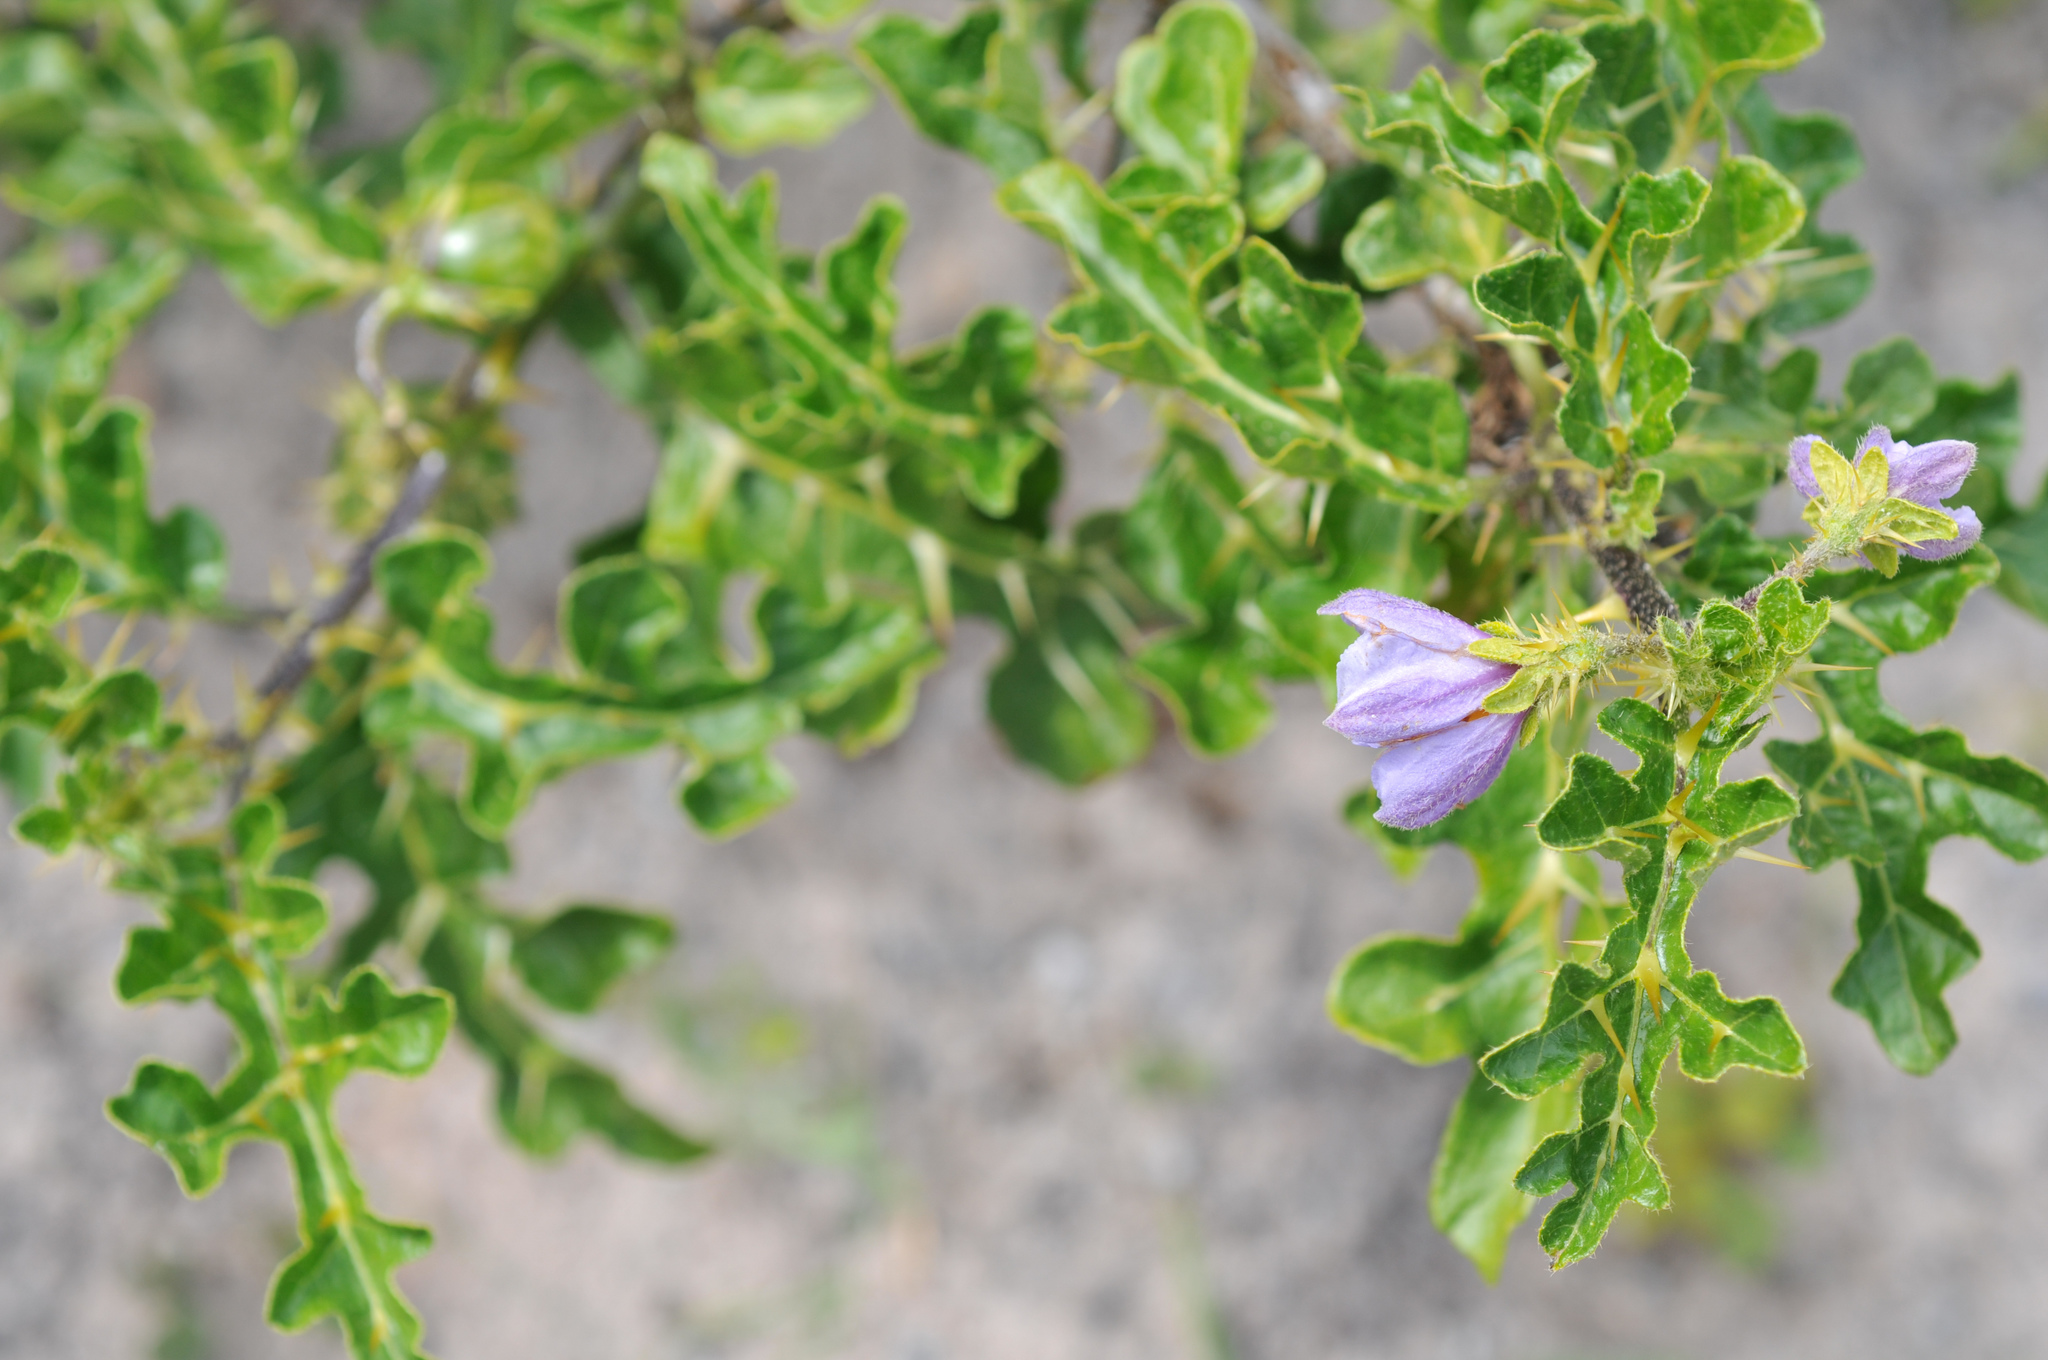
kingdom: Plantae
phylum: Tracheophyta
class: Magnoliopsida
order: Solanales
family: Solanaceae
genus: Solanum
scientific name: Solanum linnaeanum
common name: Nightshade
